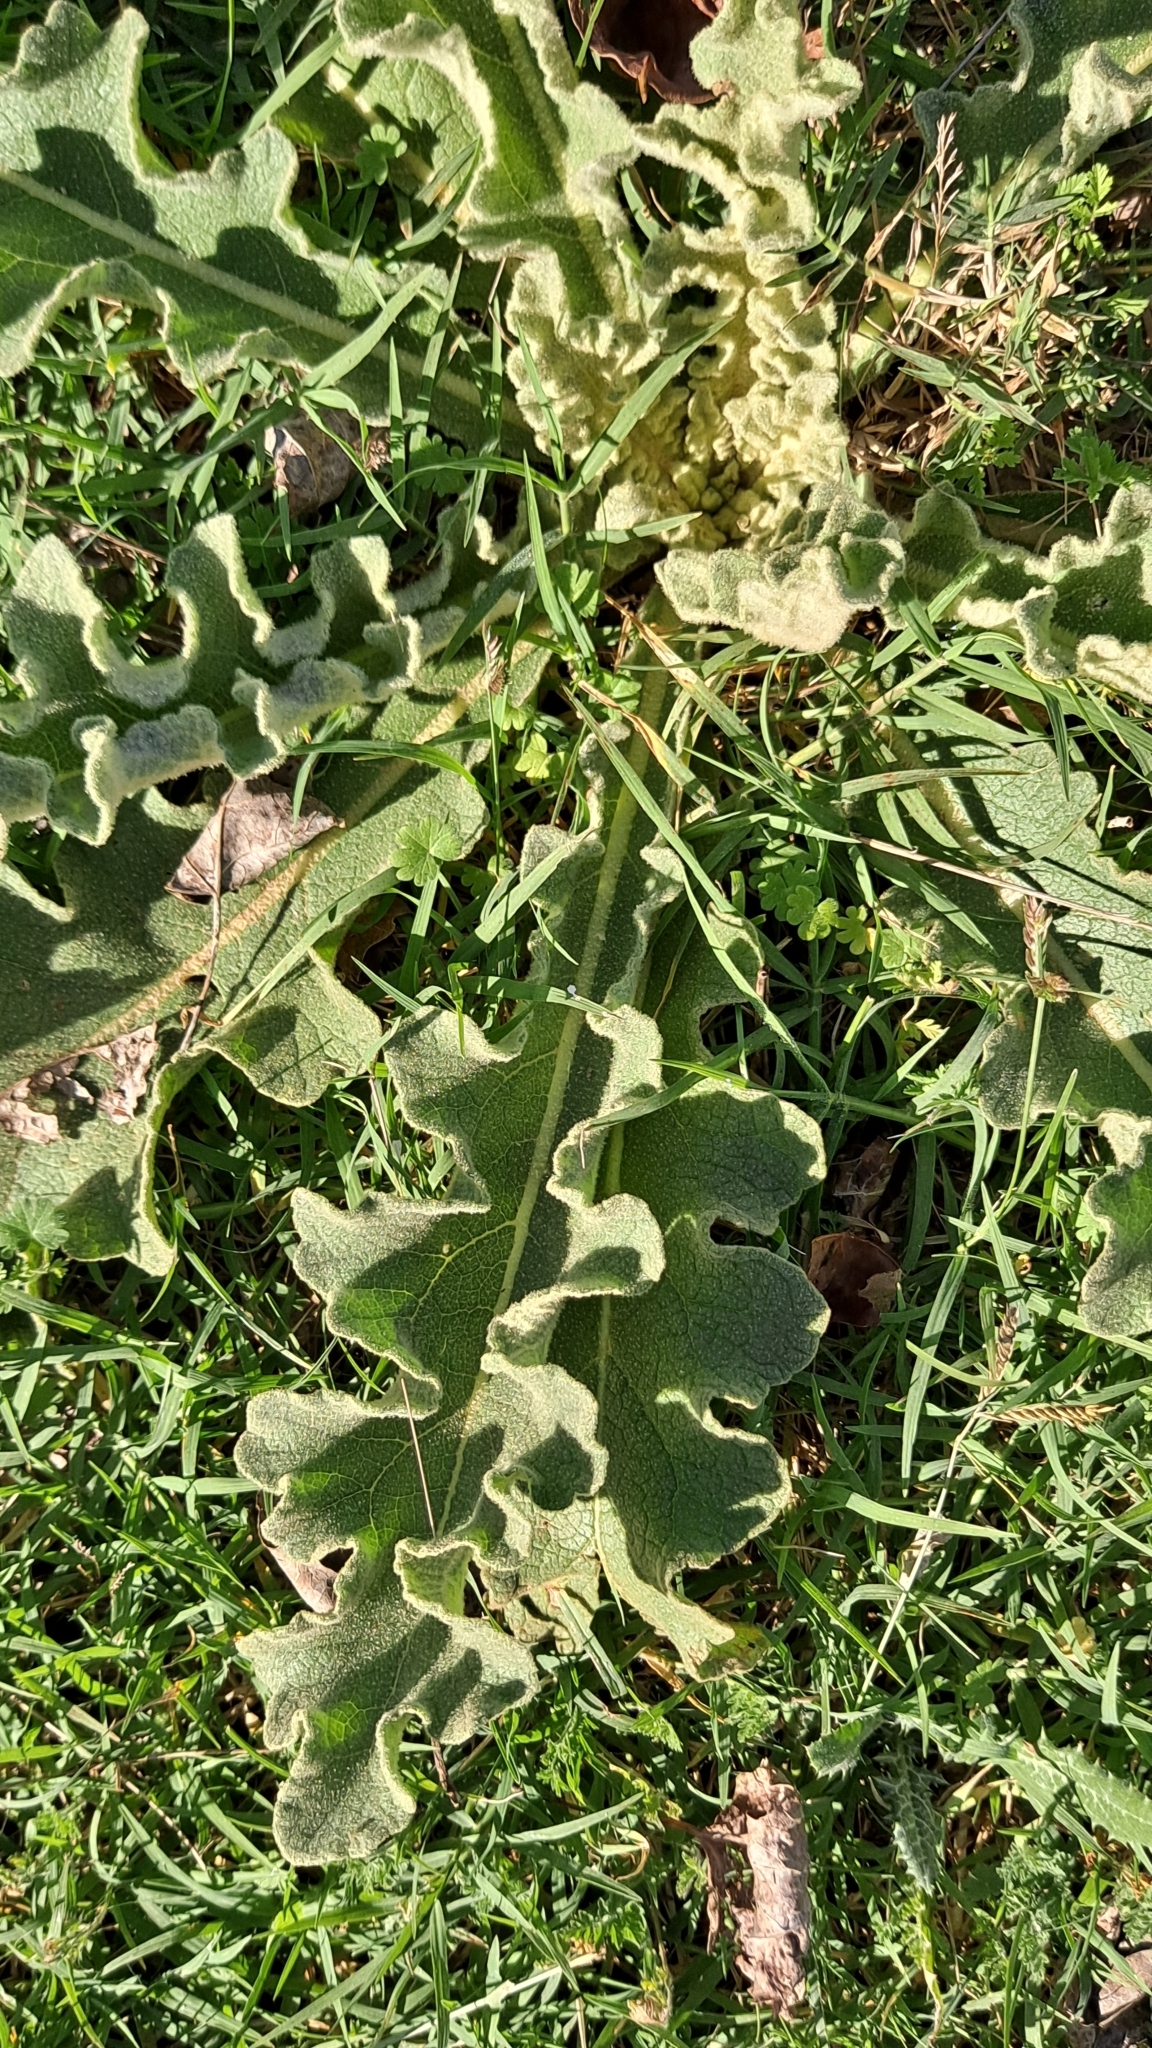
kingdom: Plantae
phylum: Tracheophyta
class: Magnoliopsida
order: Lamiales
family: Scrophulariaceae
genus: Verbascum
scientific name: Verbascum sinuatum
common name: Wavyleaf mullein
